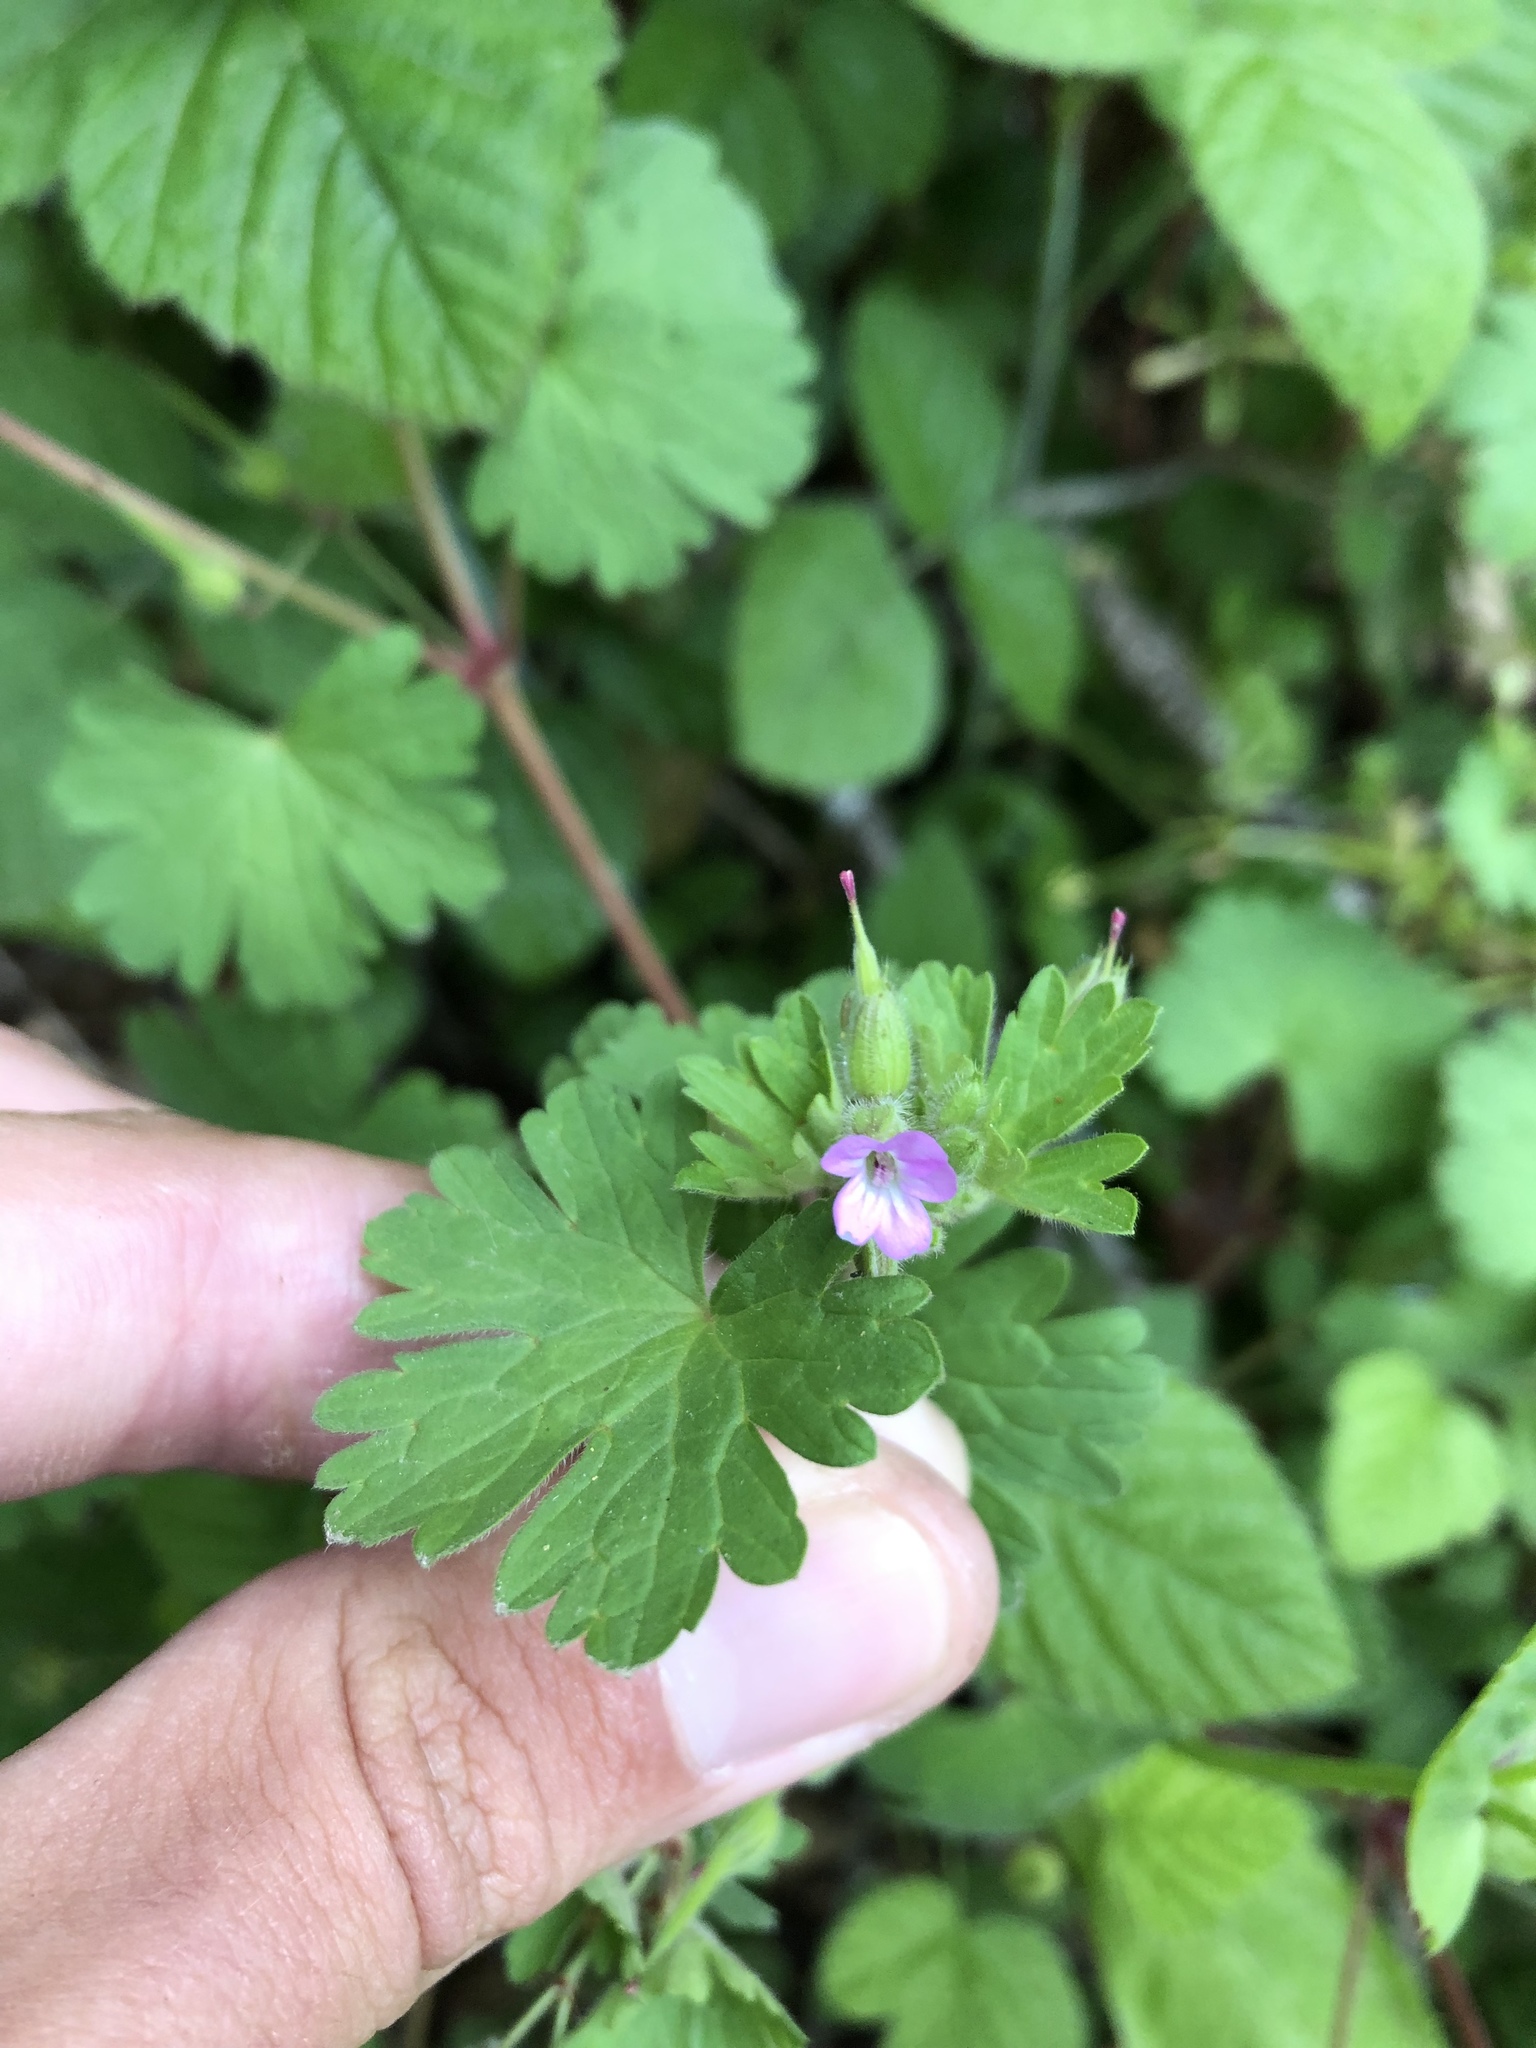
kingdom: Plantae
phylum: Tracheophyta
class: Magnoliopsida
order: Geraniales
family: Geraniaceae
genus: Geranium
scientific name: Geranium rotundifolium
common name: Round-leaved crane's-bill
